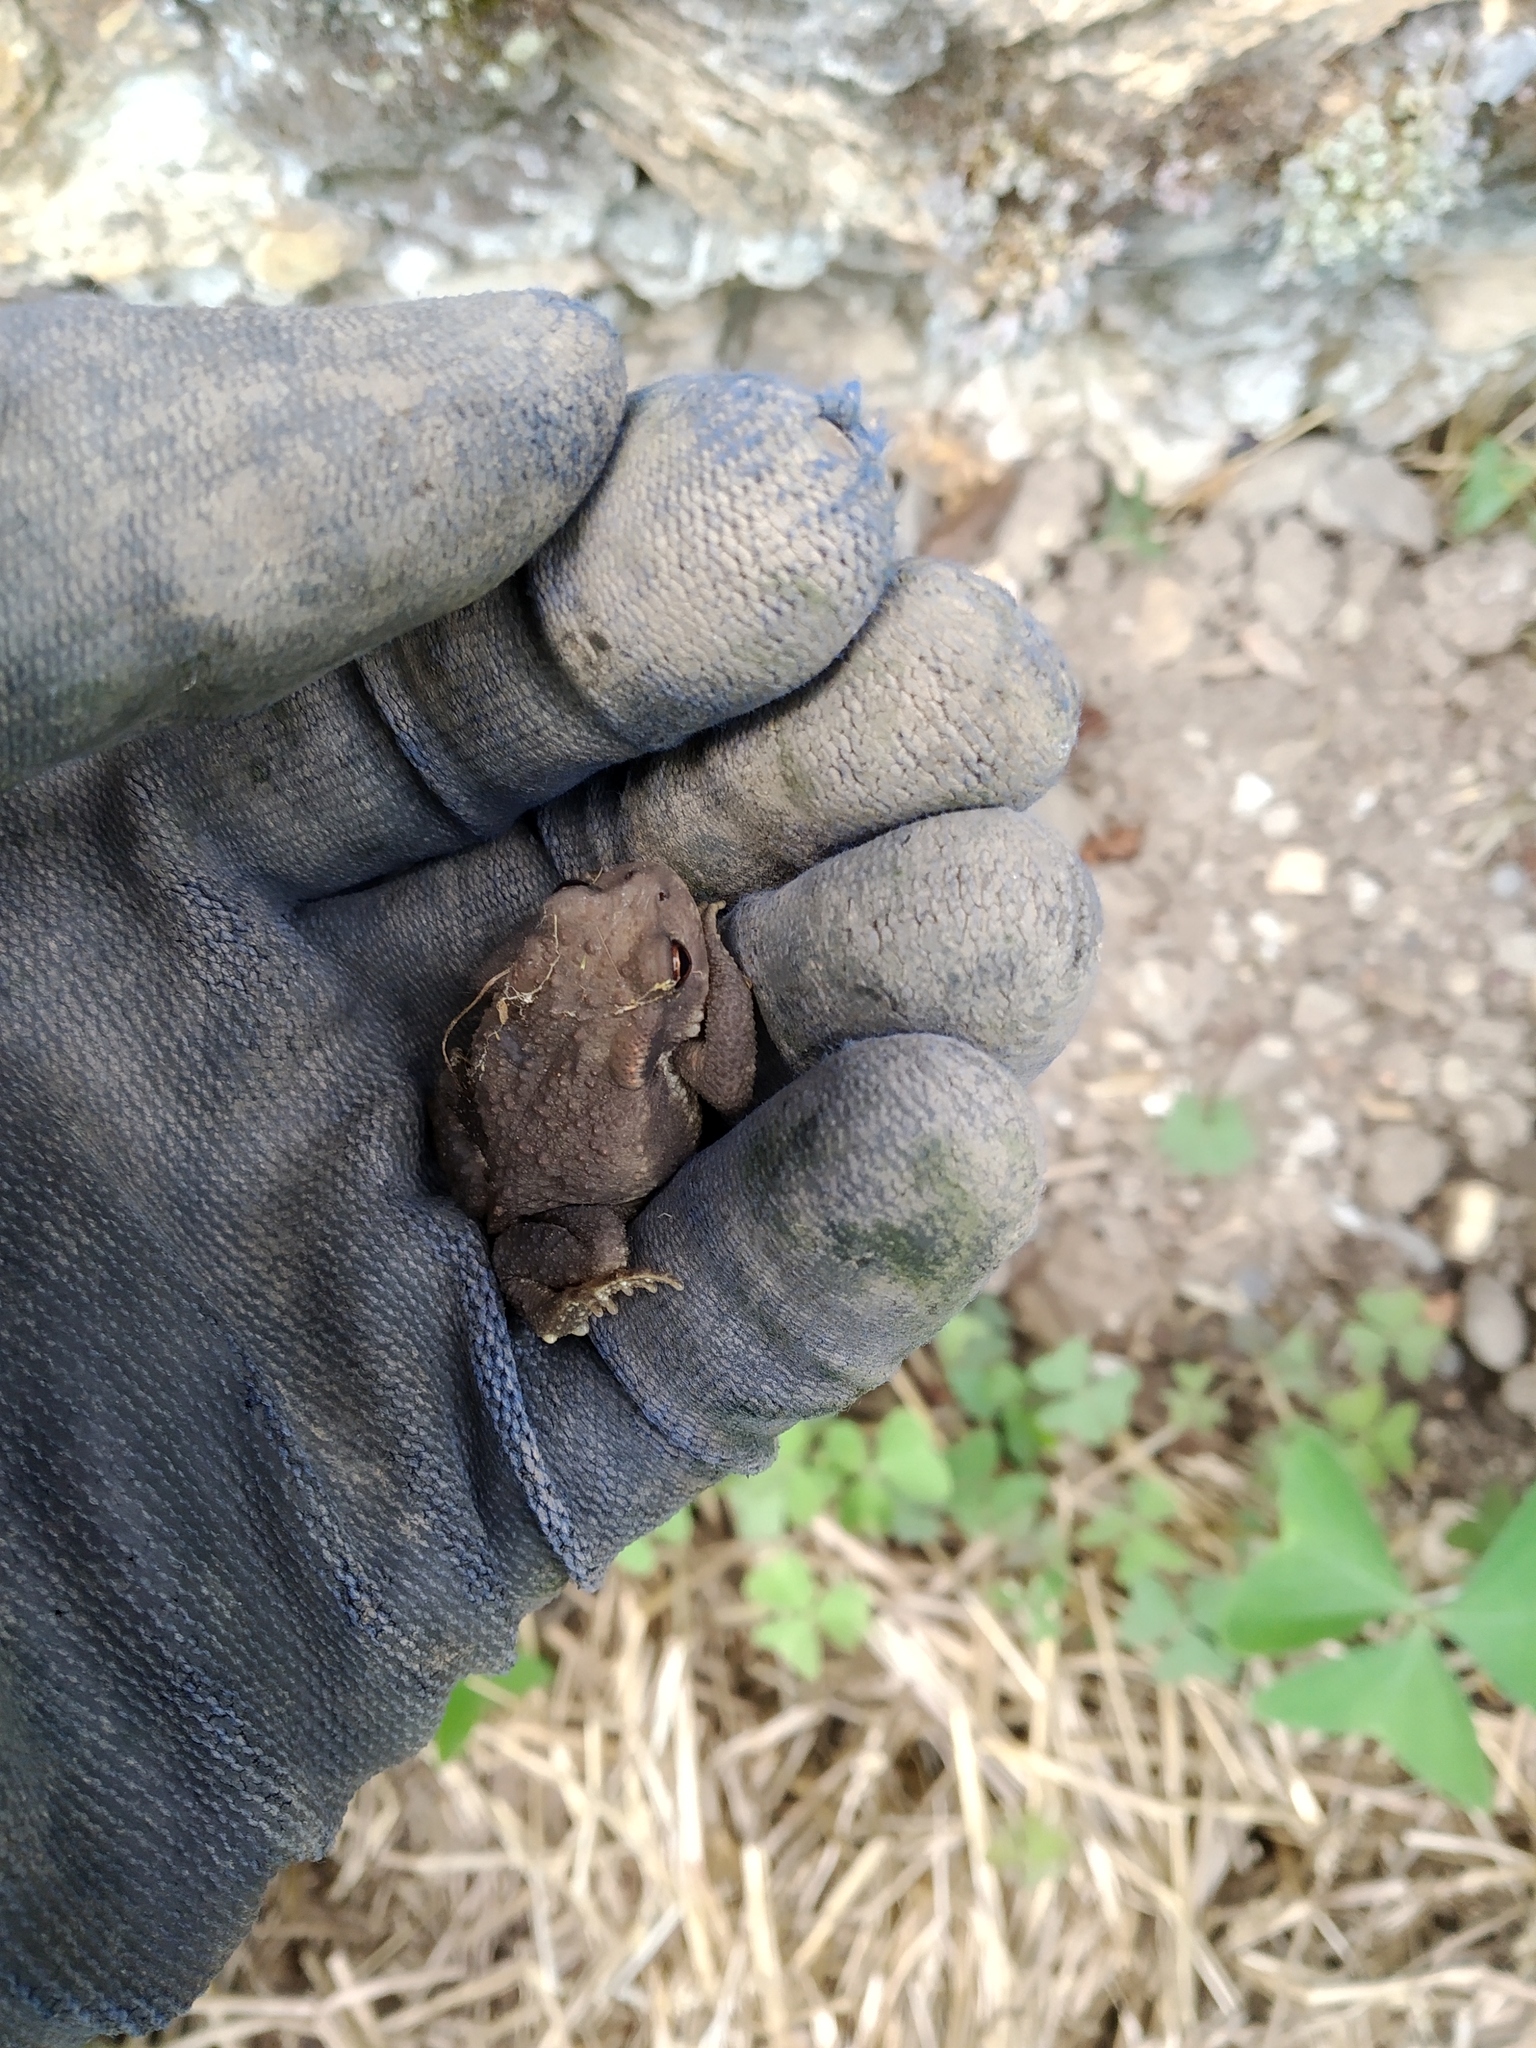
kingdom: Animalia
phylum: Chordata
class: Amphibia
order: Anura
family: Bufonidae
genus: Bufo
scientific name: Bufo spinosus
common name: Western common toad
